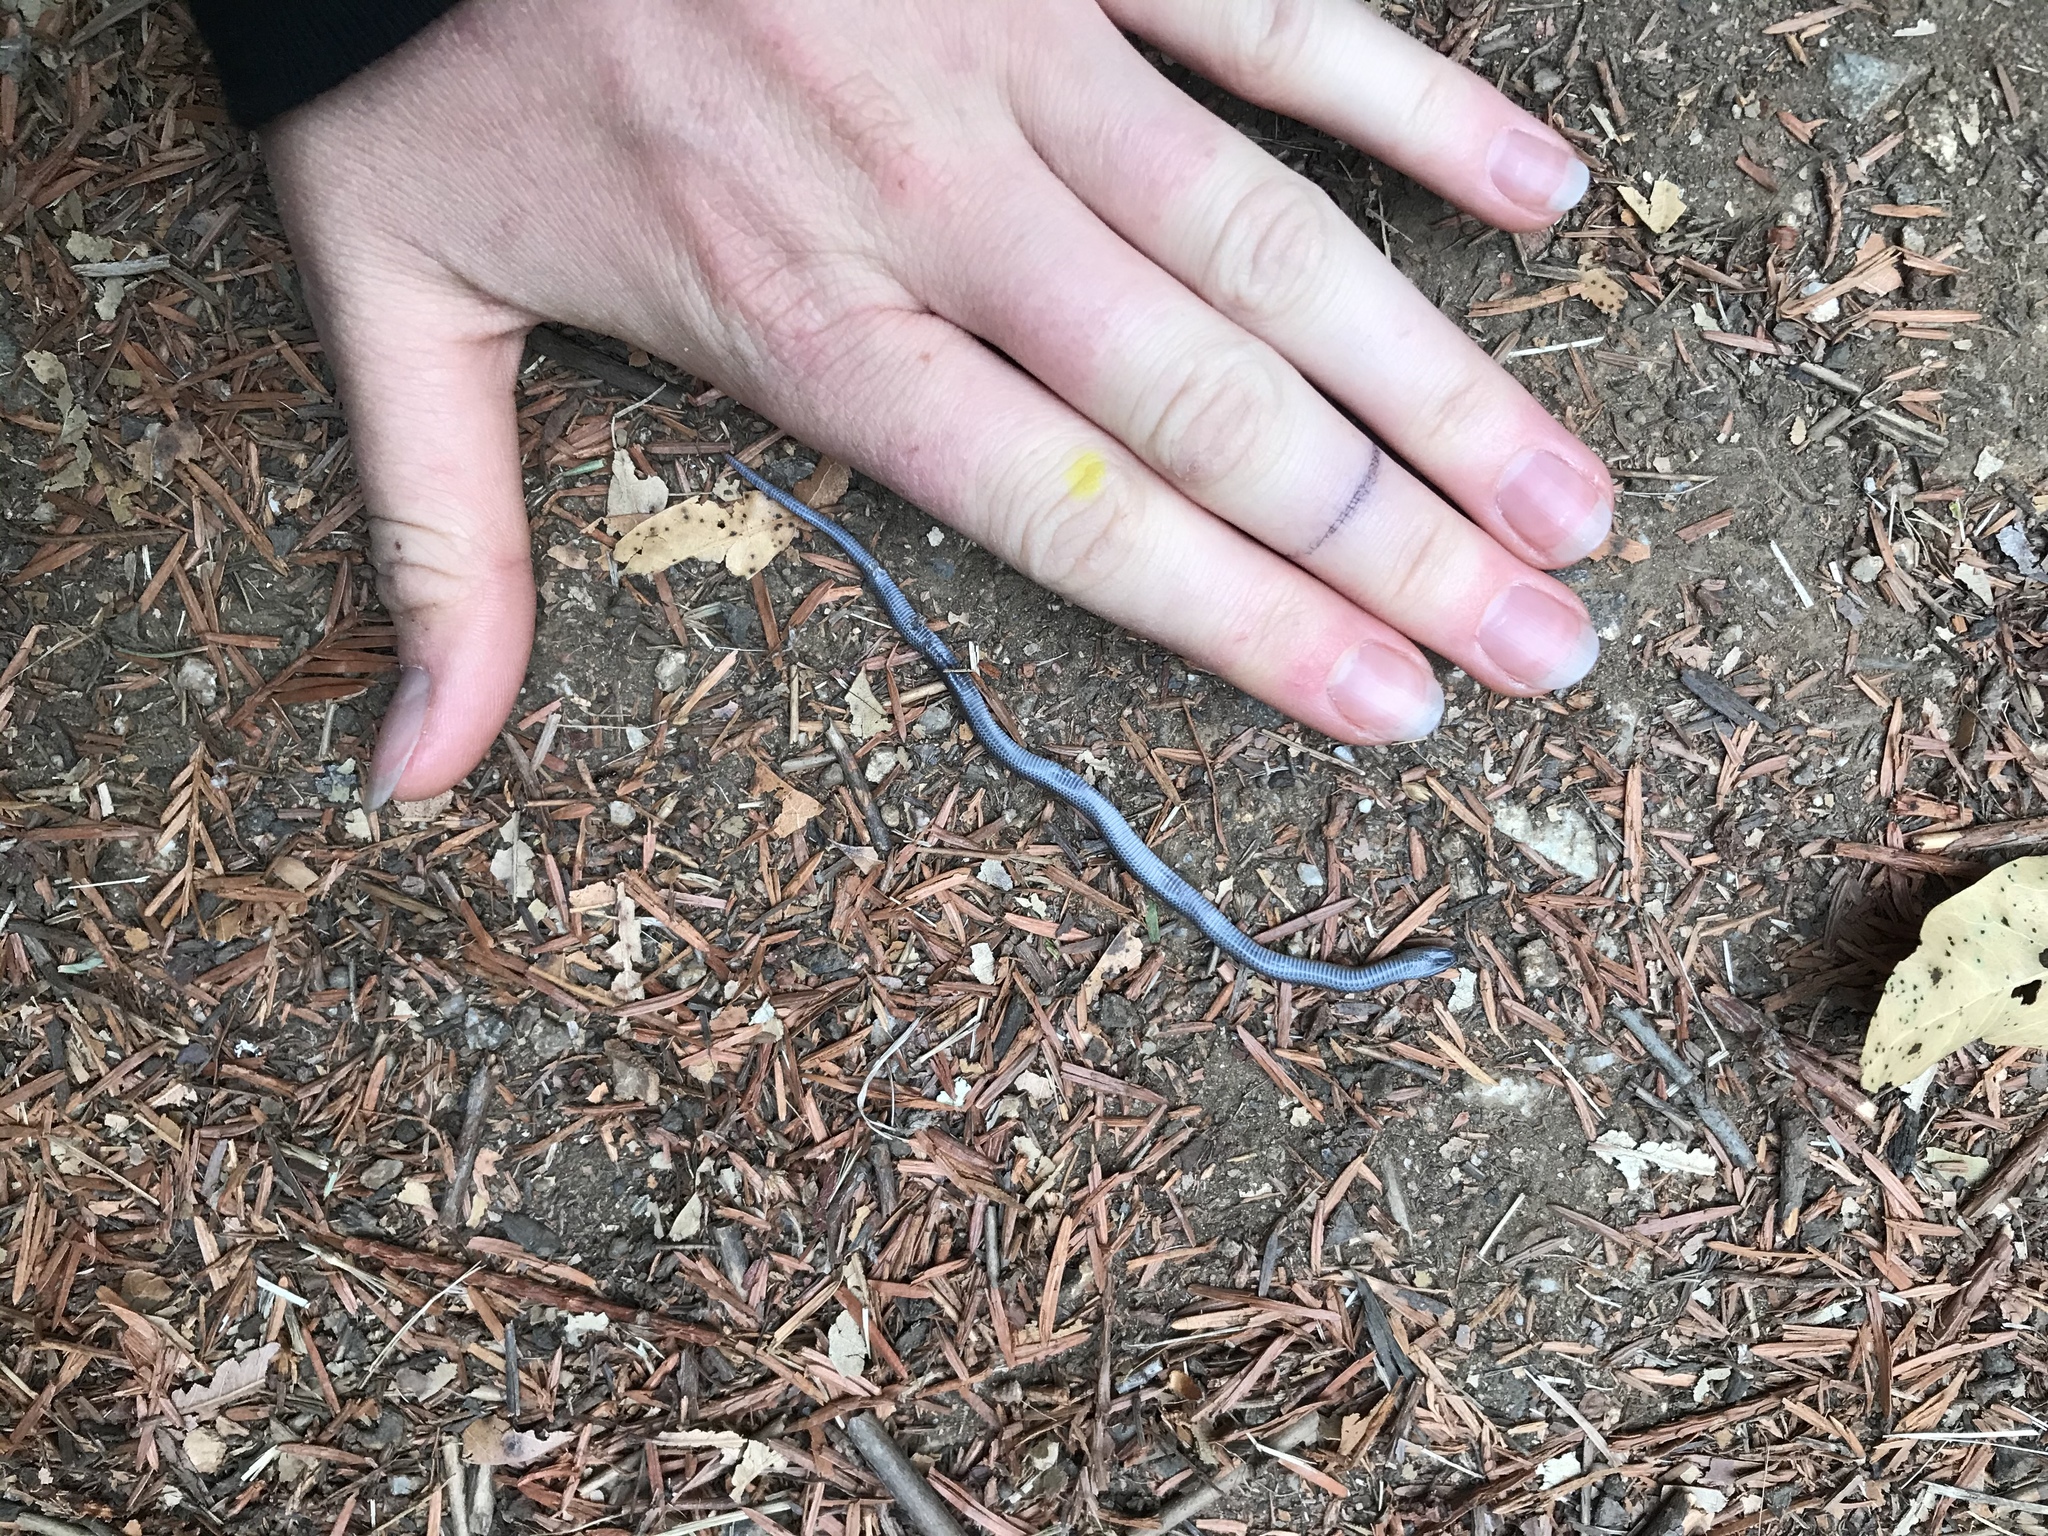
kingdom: Animalia
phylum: Chordata
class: Squamata
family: Colubridae
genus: Contia
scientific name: Contia longicaudae
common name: Forest sharp-tailed snake
